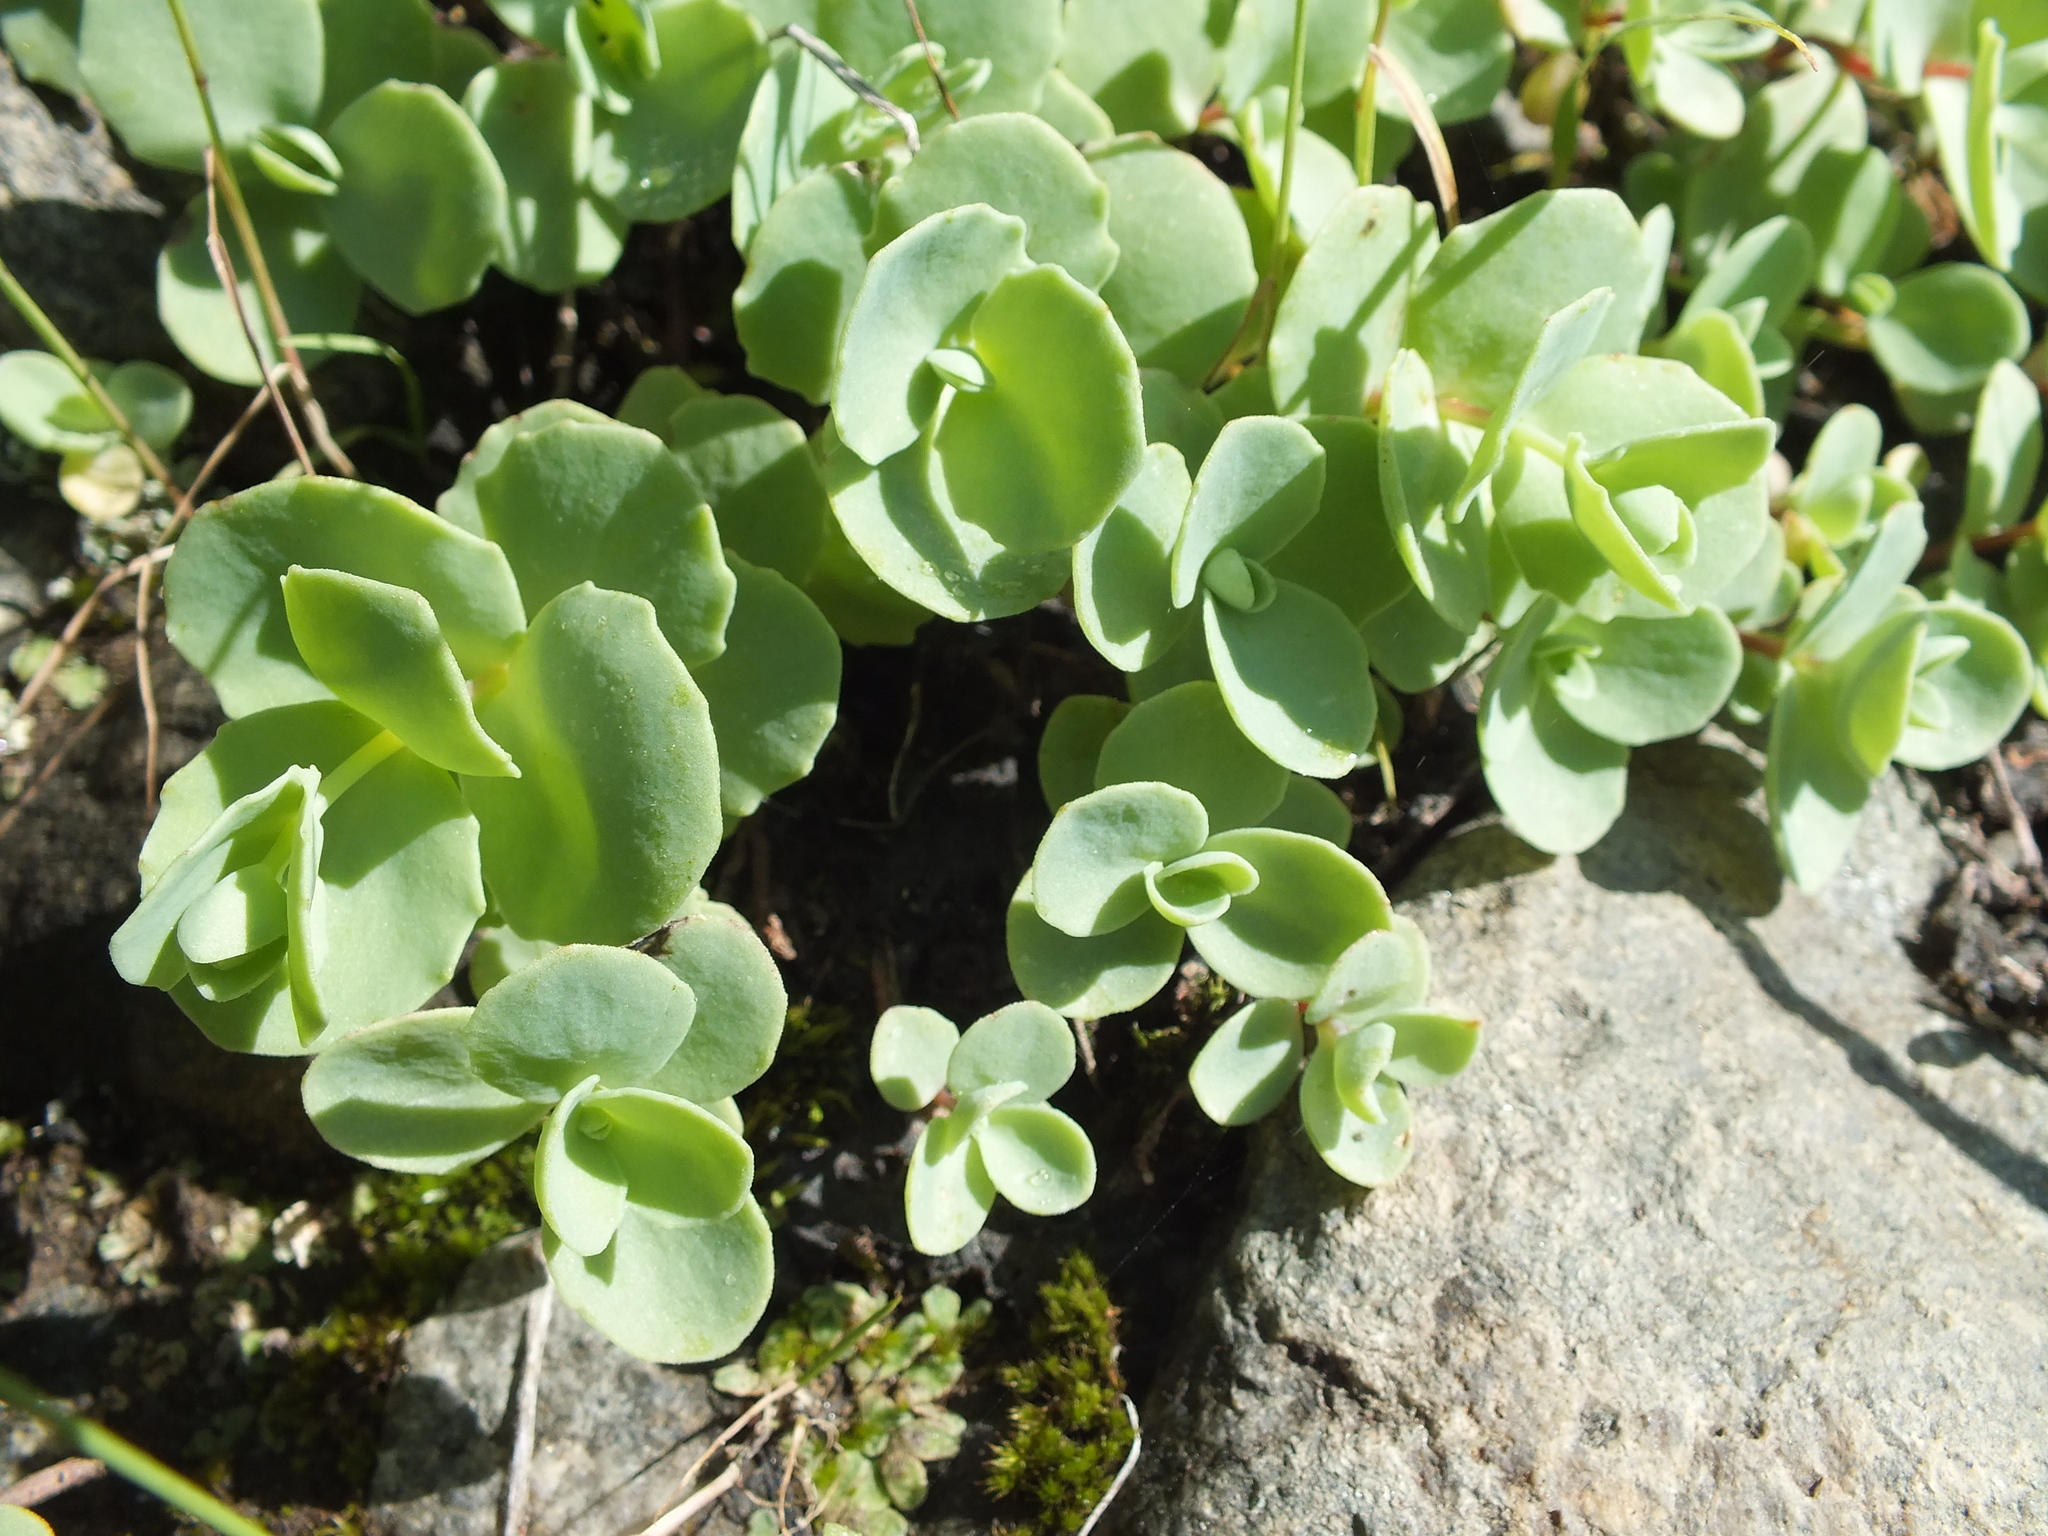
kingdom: Plantae
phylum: Tracheophyta
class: Magnoliopsida
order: Saxifragales
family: Crassulaceae
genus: Hylotelephium
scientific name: Hylotelephium ewersii
